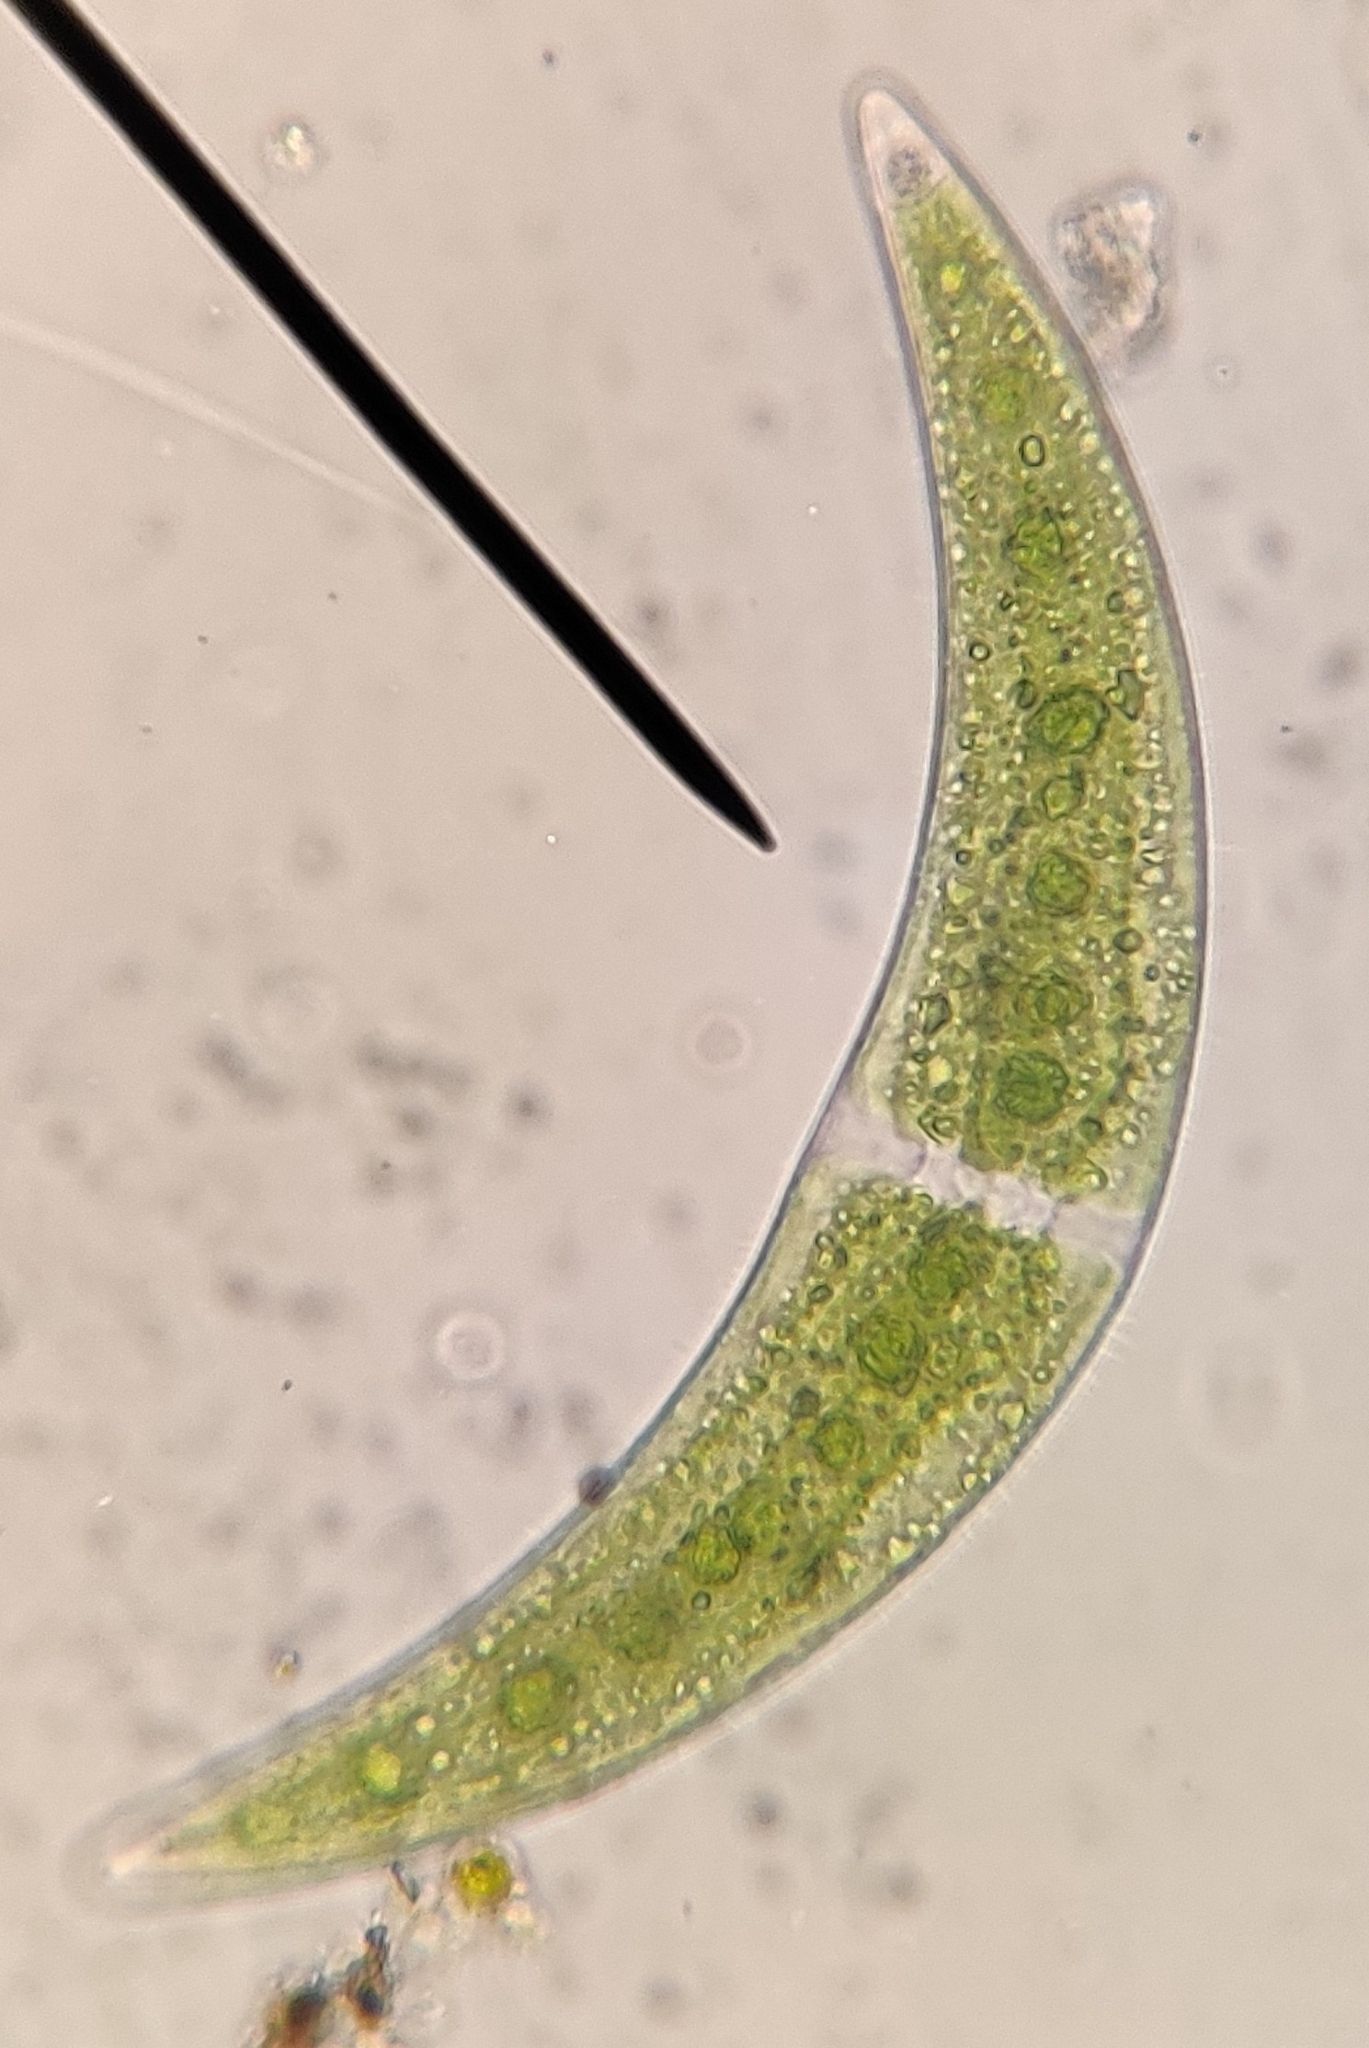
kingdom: Plantae
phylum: Charophyta
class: Zygnematophyceae
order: Zygnematales
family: Closteriaceae
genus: Closterium
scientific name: Closterium moniliferum
